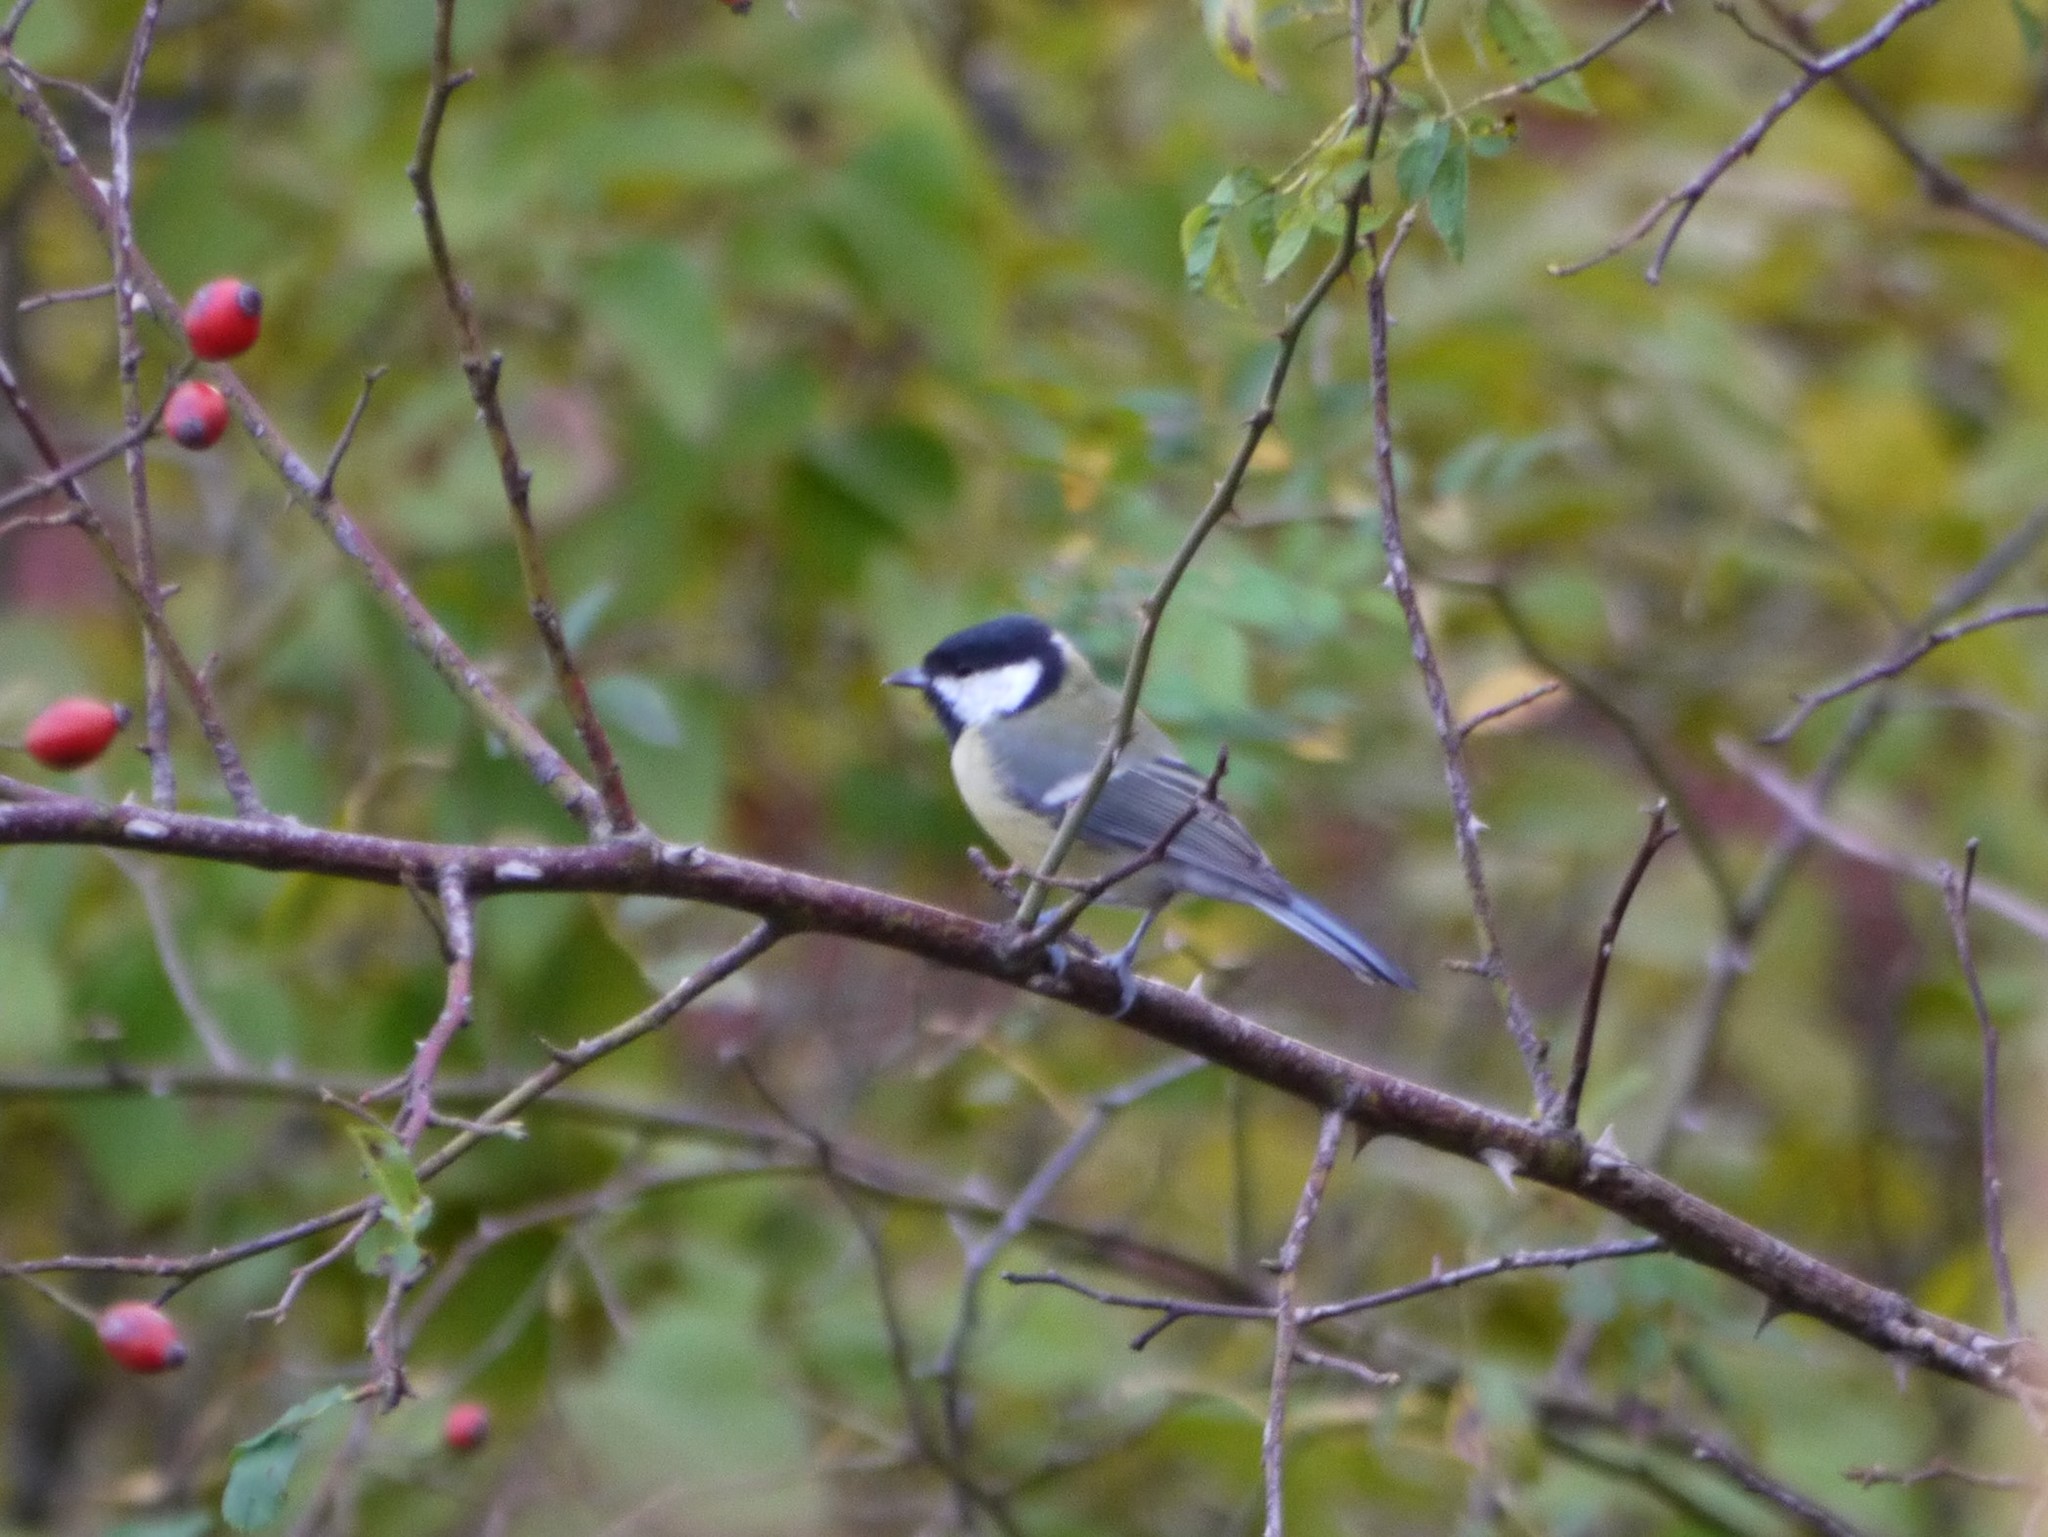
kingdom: Animalia
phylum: Chordata
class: Aves
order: Passeriformes
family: Paridae
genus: Parus
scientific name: Parus major
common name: Great tit
